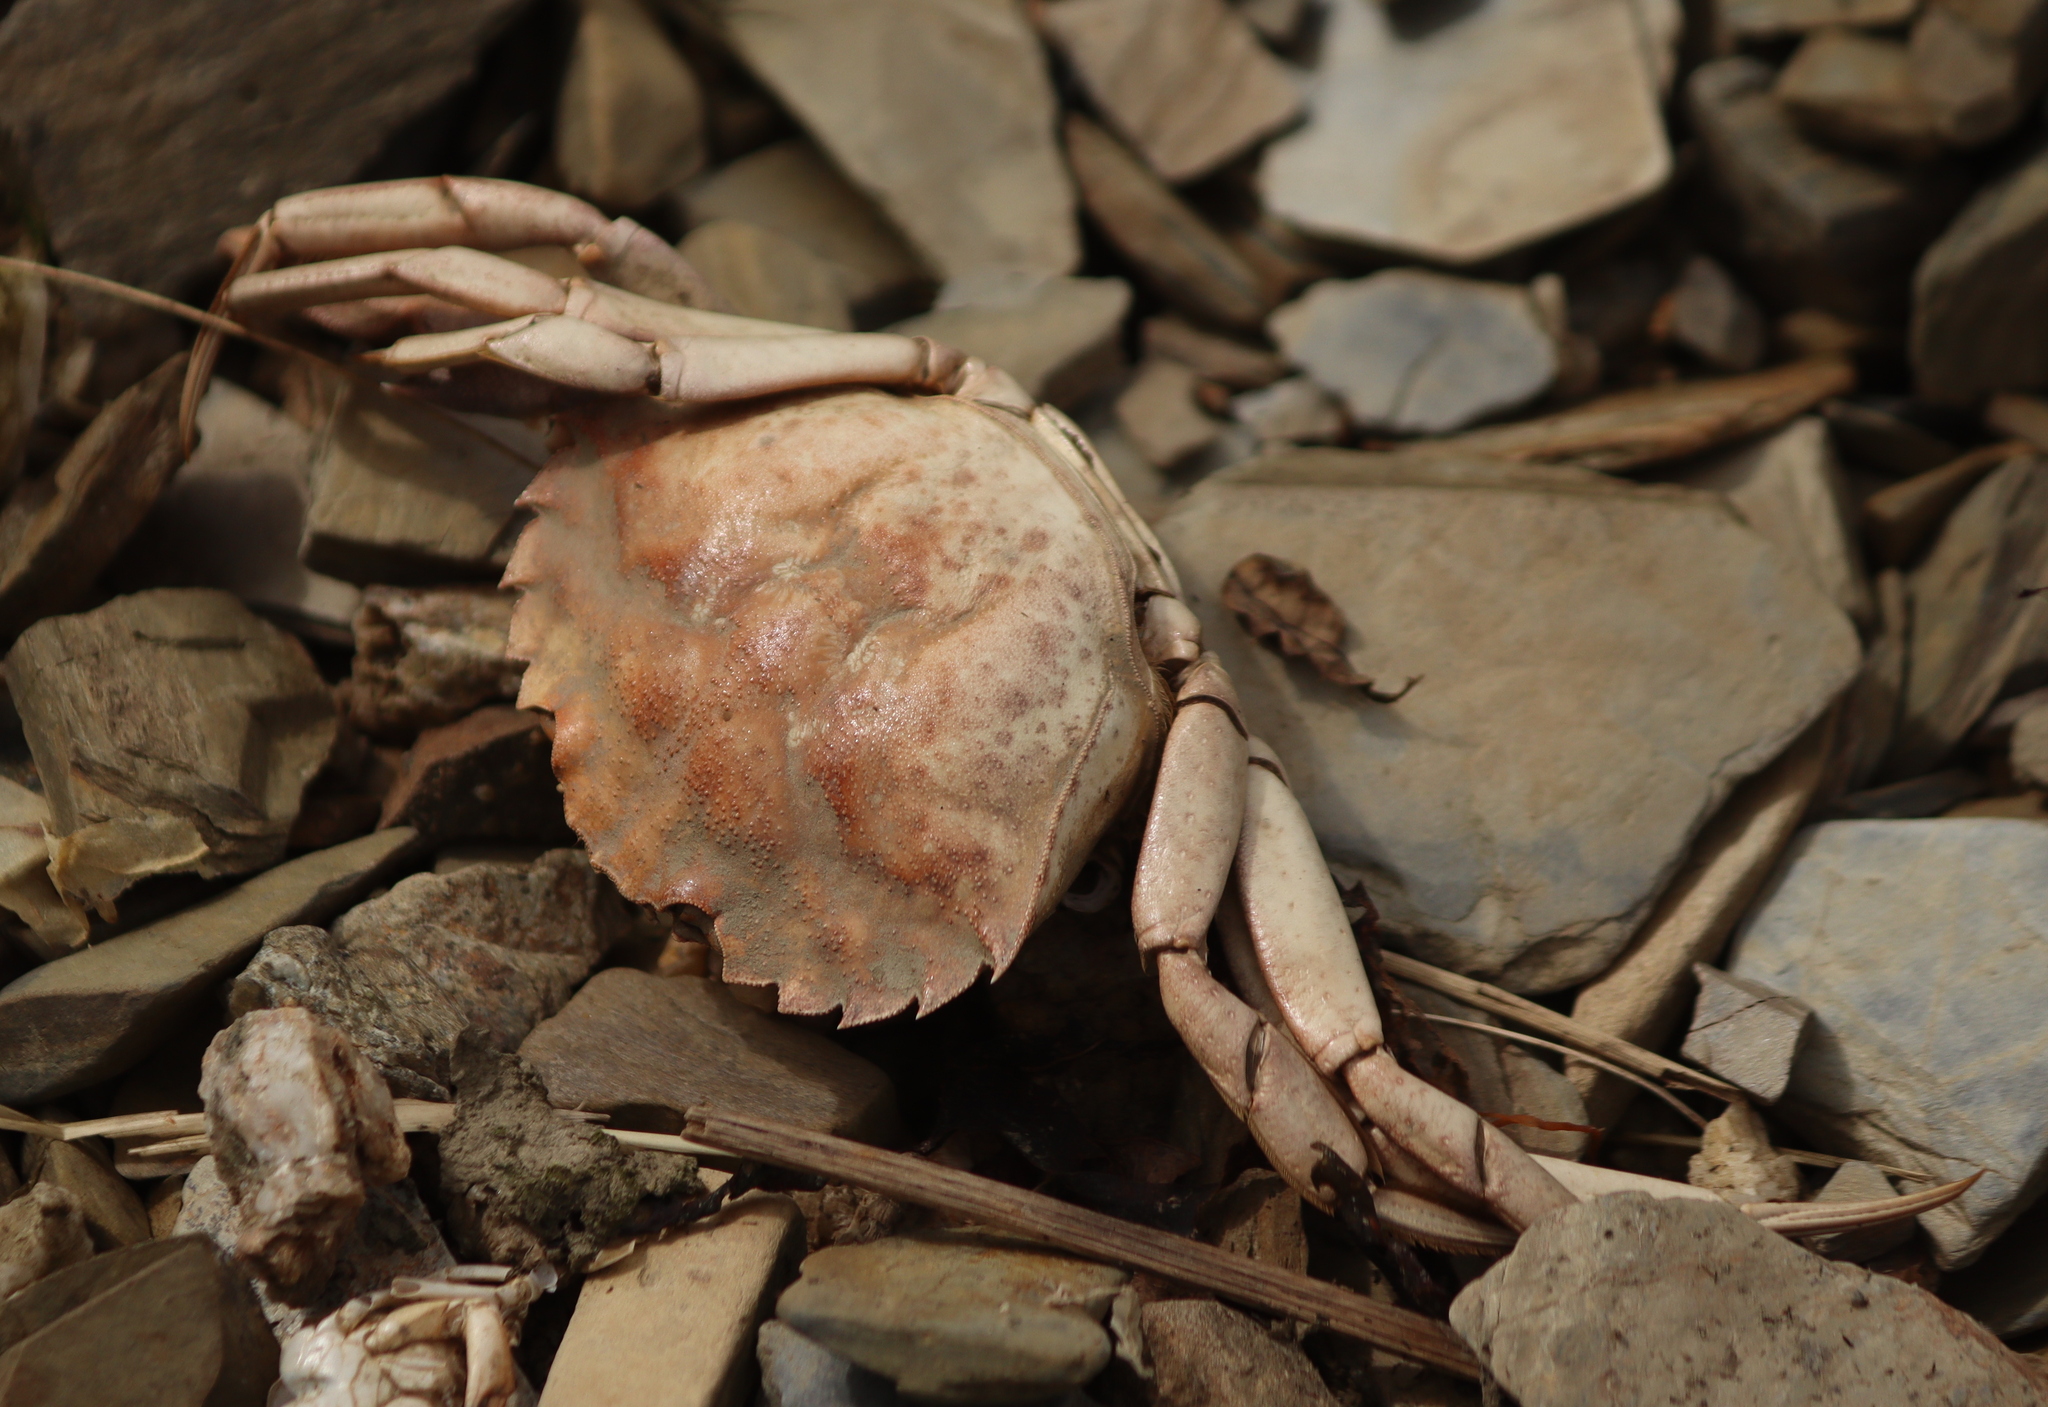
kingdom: Animalia
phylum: Arthropoda
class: Malacostraca
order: Decapoda
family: Carcinidae
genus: Carcinus
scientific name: Carcinus maenas
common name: European green crab
